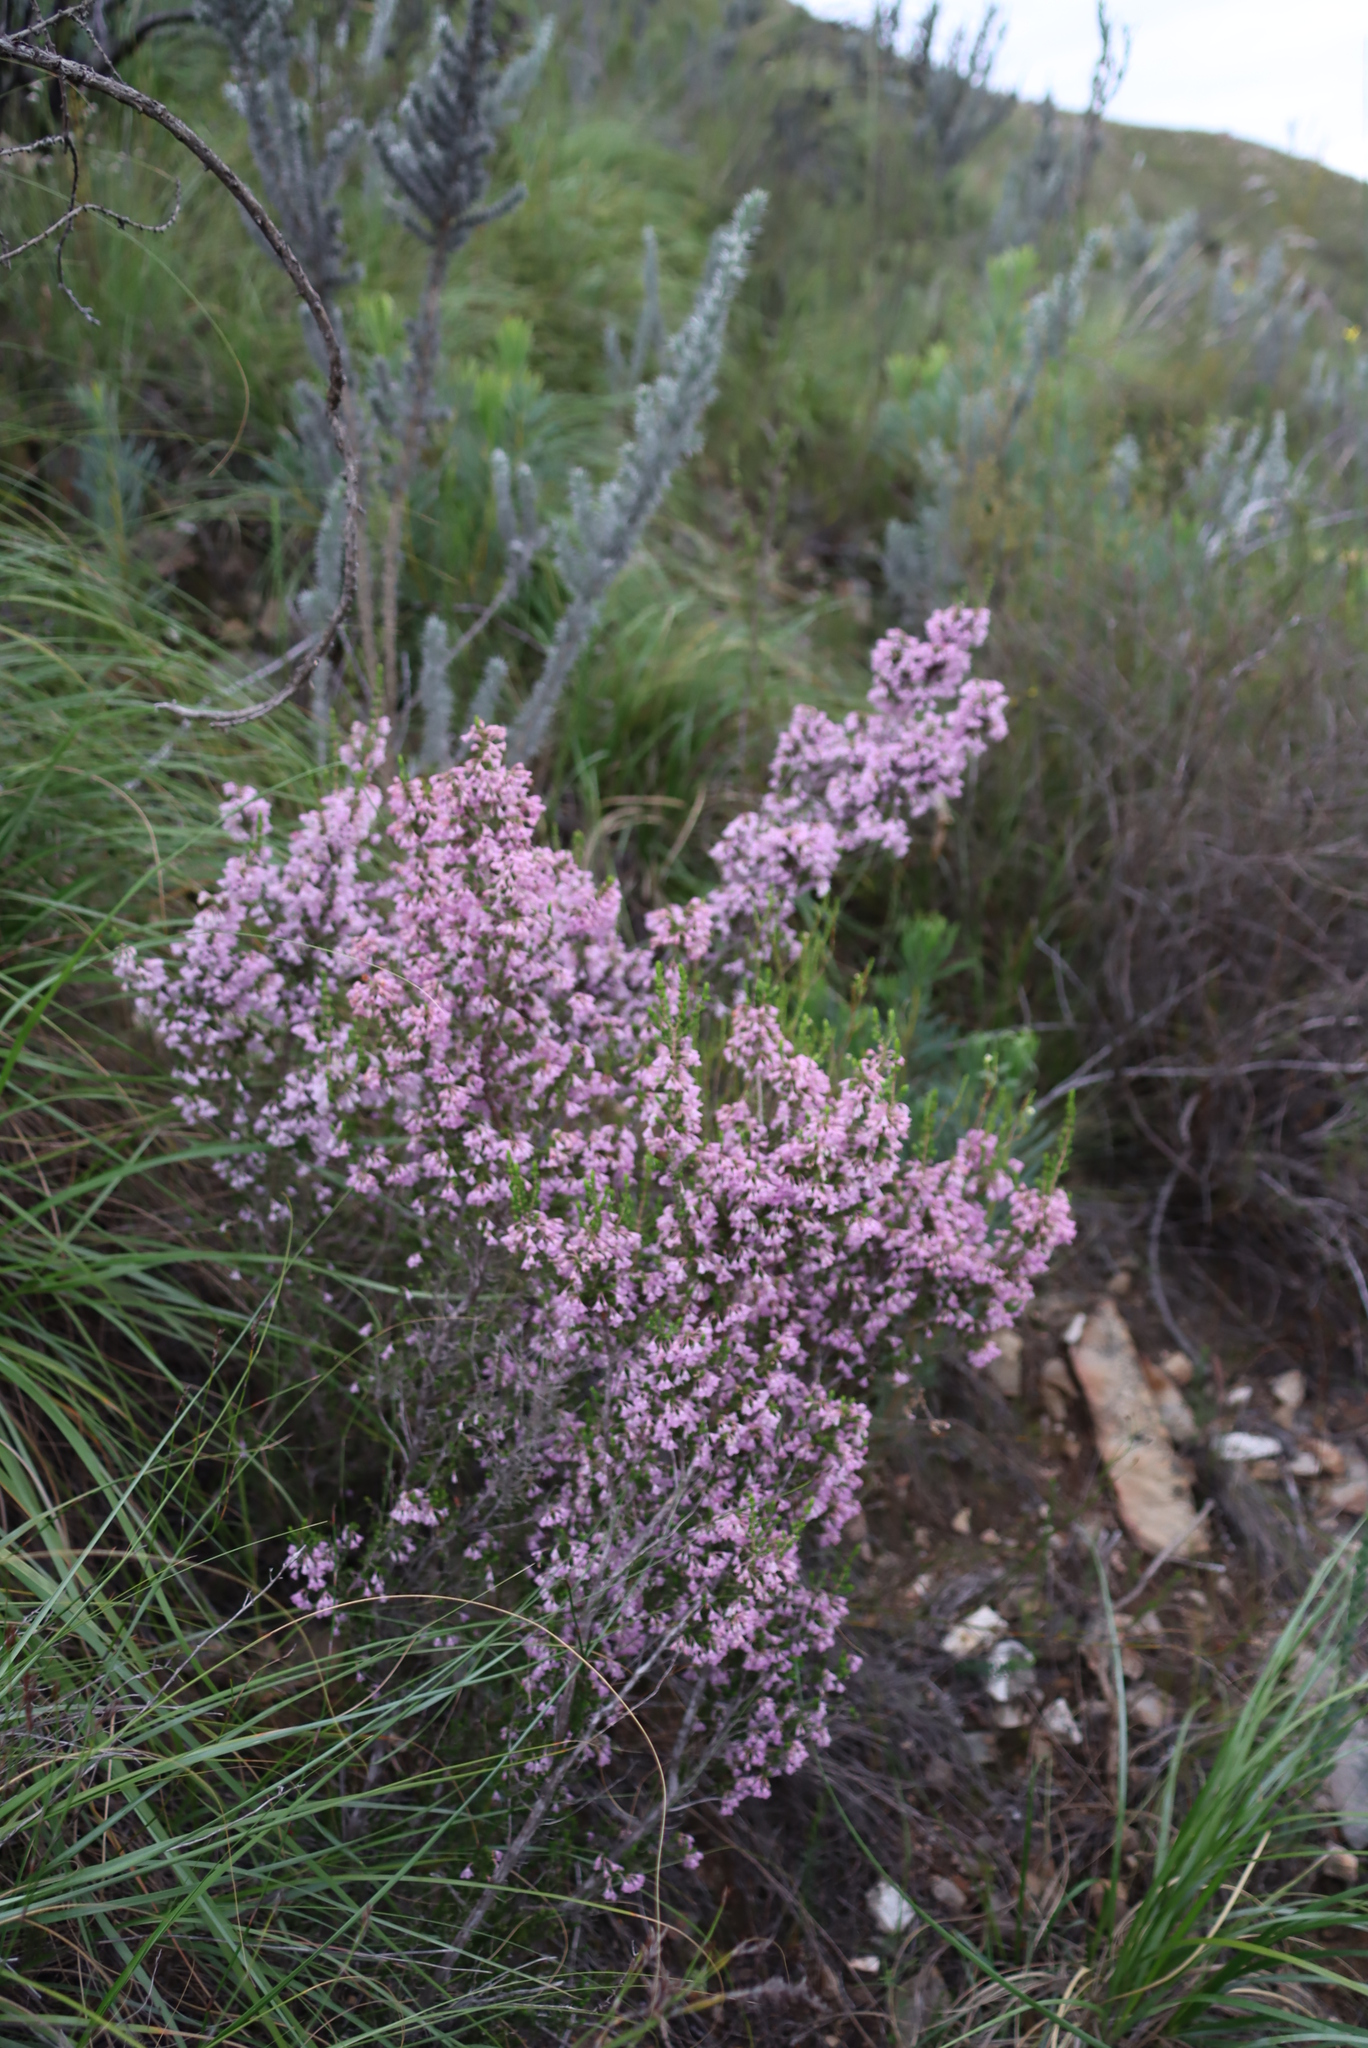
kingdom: Plantae
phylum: Tracheophyta
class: Magnoliopsida
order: Ericales
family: Ericaceae
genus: Erica
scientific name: Erica newdigatei
